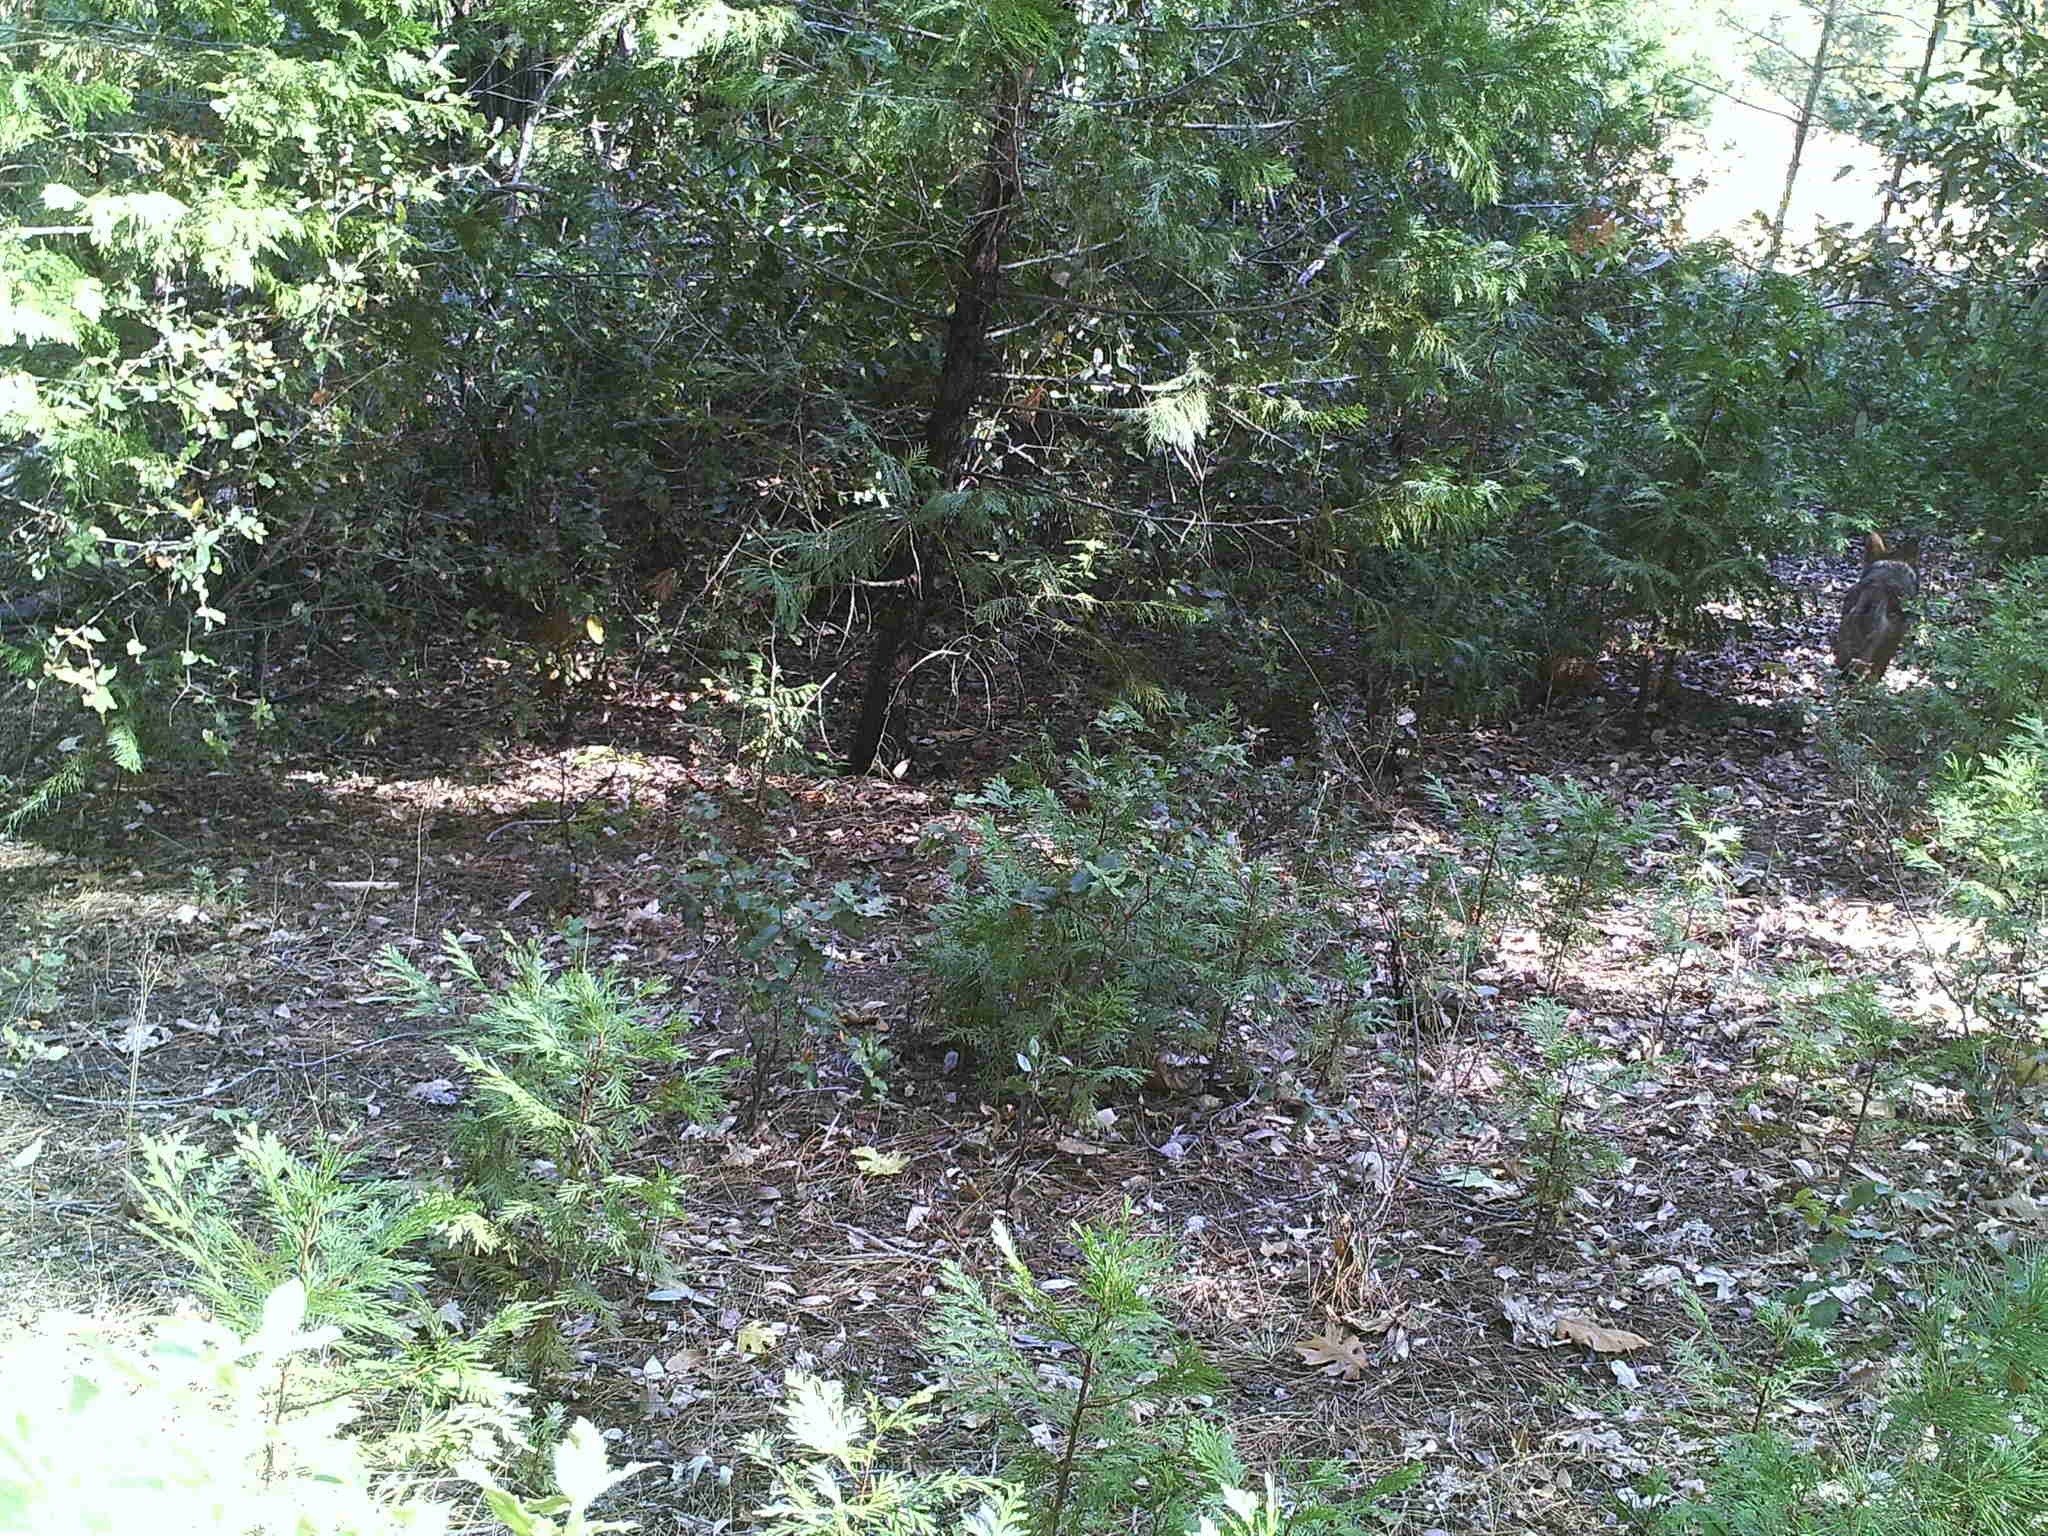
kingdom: Animalia
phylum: Chordata
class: Mammalia
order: Carnivora
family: Canidae
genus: Canis
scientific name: Canis latrans
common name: Coyote
